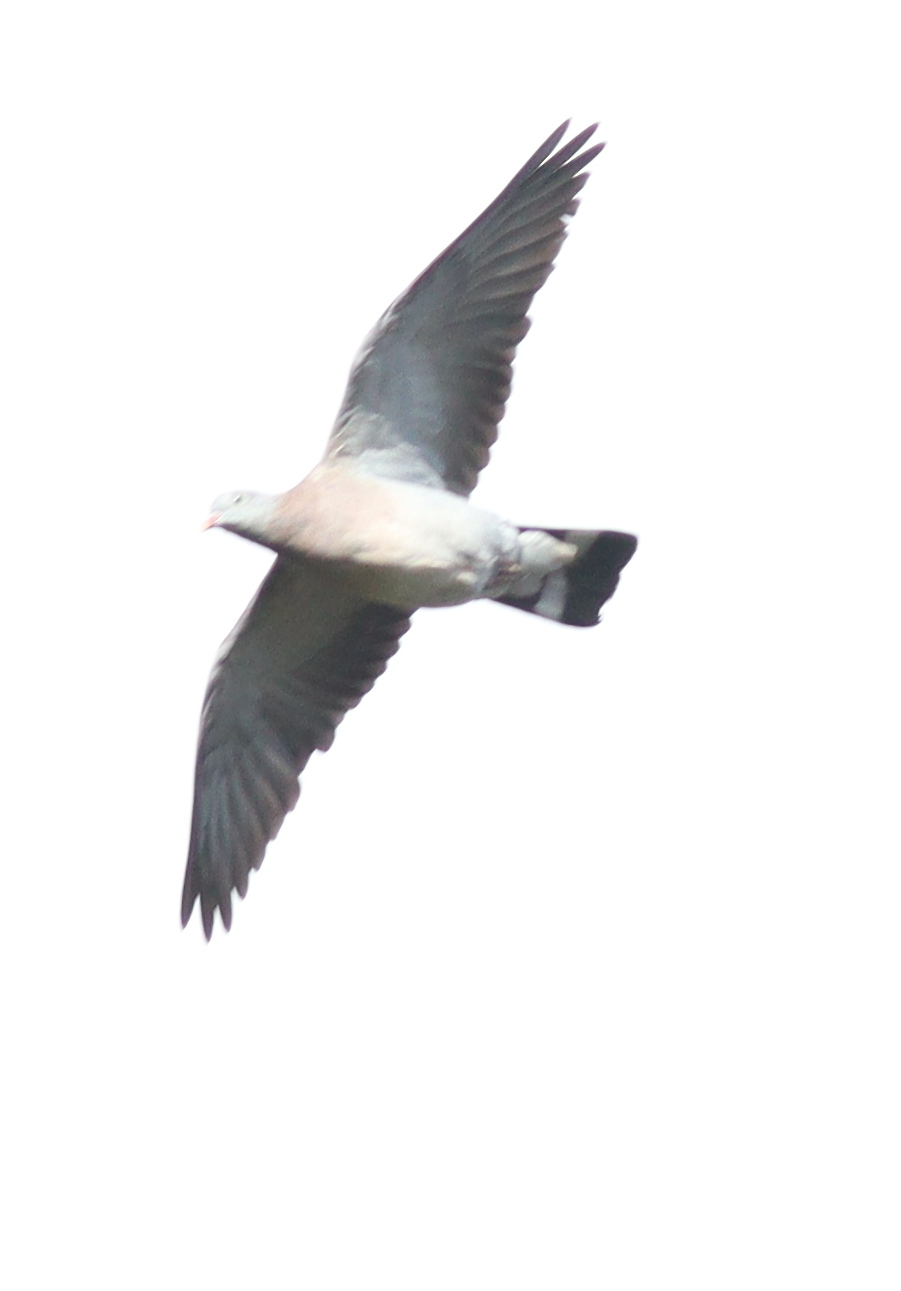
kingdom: Animalia
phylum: Chordata
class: Aves
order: Columbiformes
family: Columbidae
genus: Columba
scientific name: Columba palumbus
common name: Common wood pigeon
